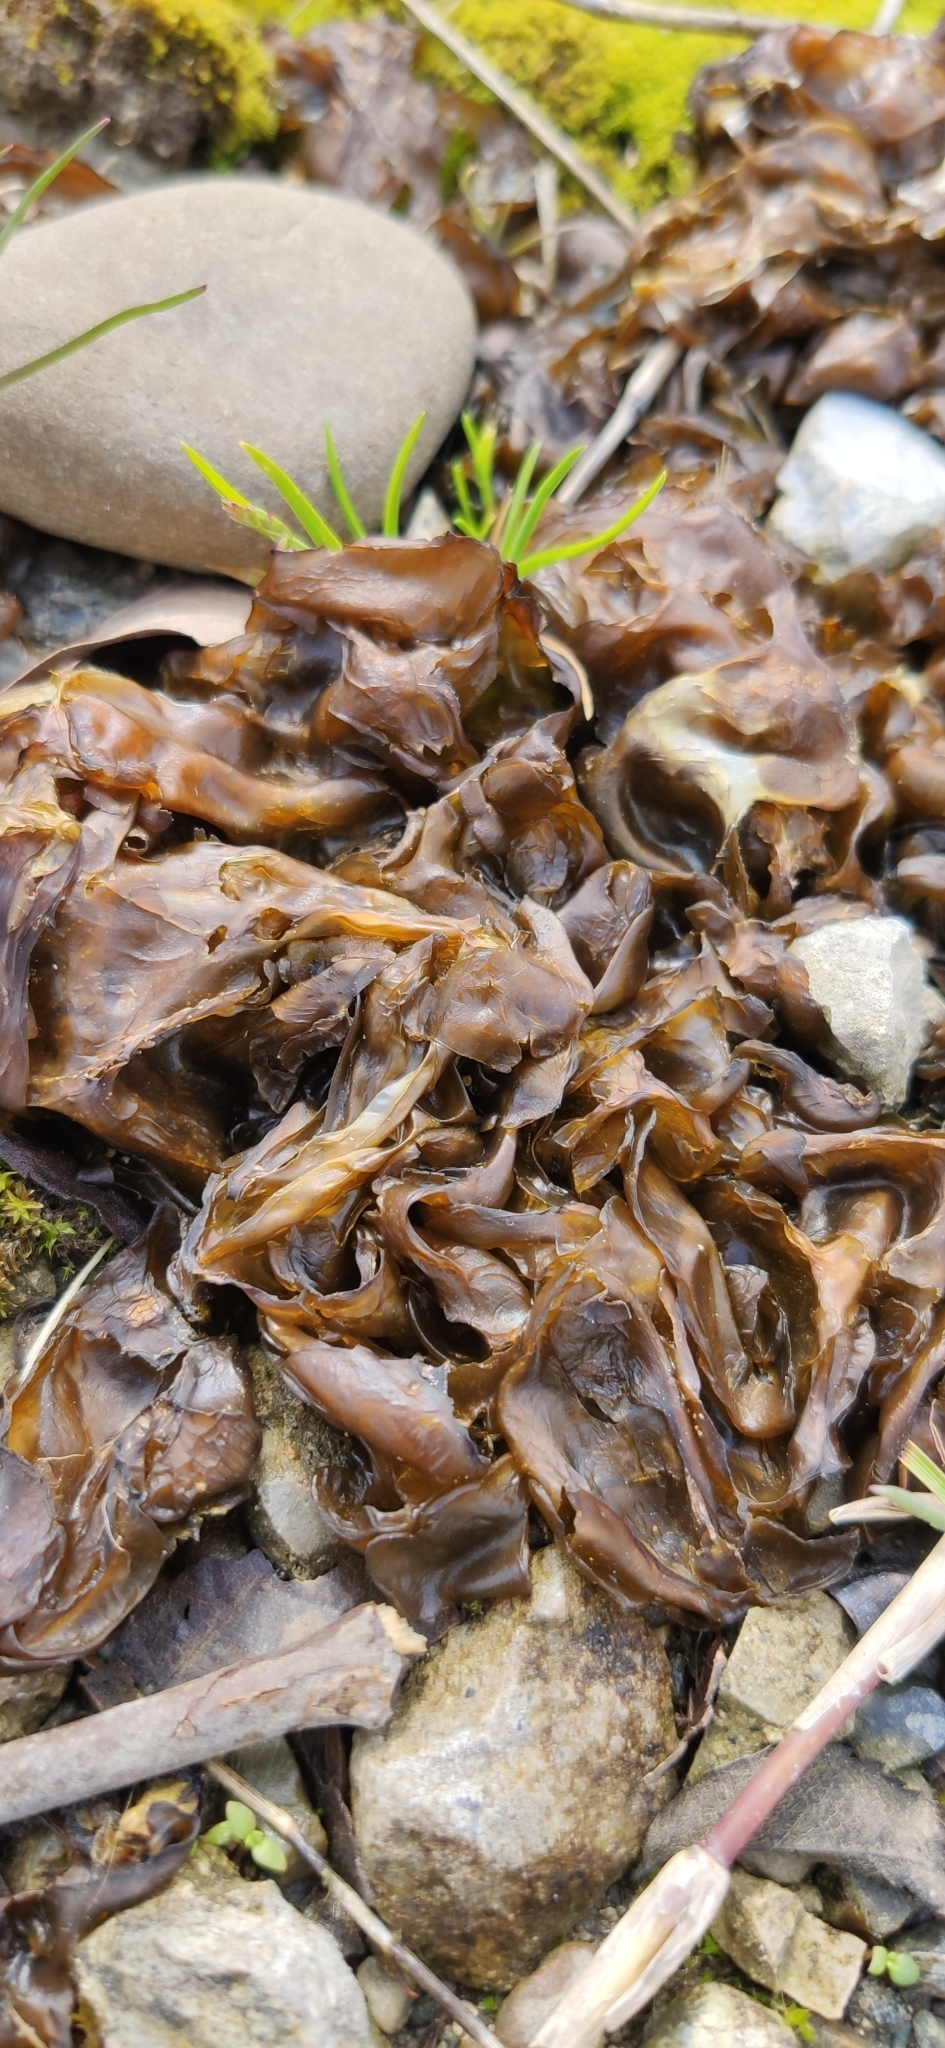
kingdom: Bacteria
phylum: Cyanobacteria
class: Cyanobacteriia
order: Cyanobacteriales
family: Nostocaceae
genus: Nostoc
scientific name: Nostoc commune
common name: Star jelly
